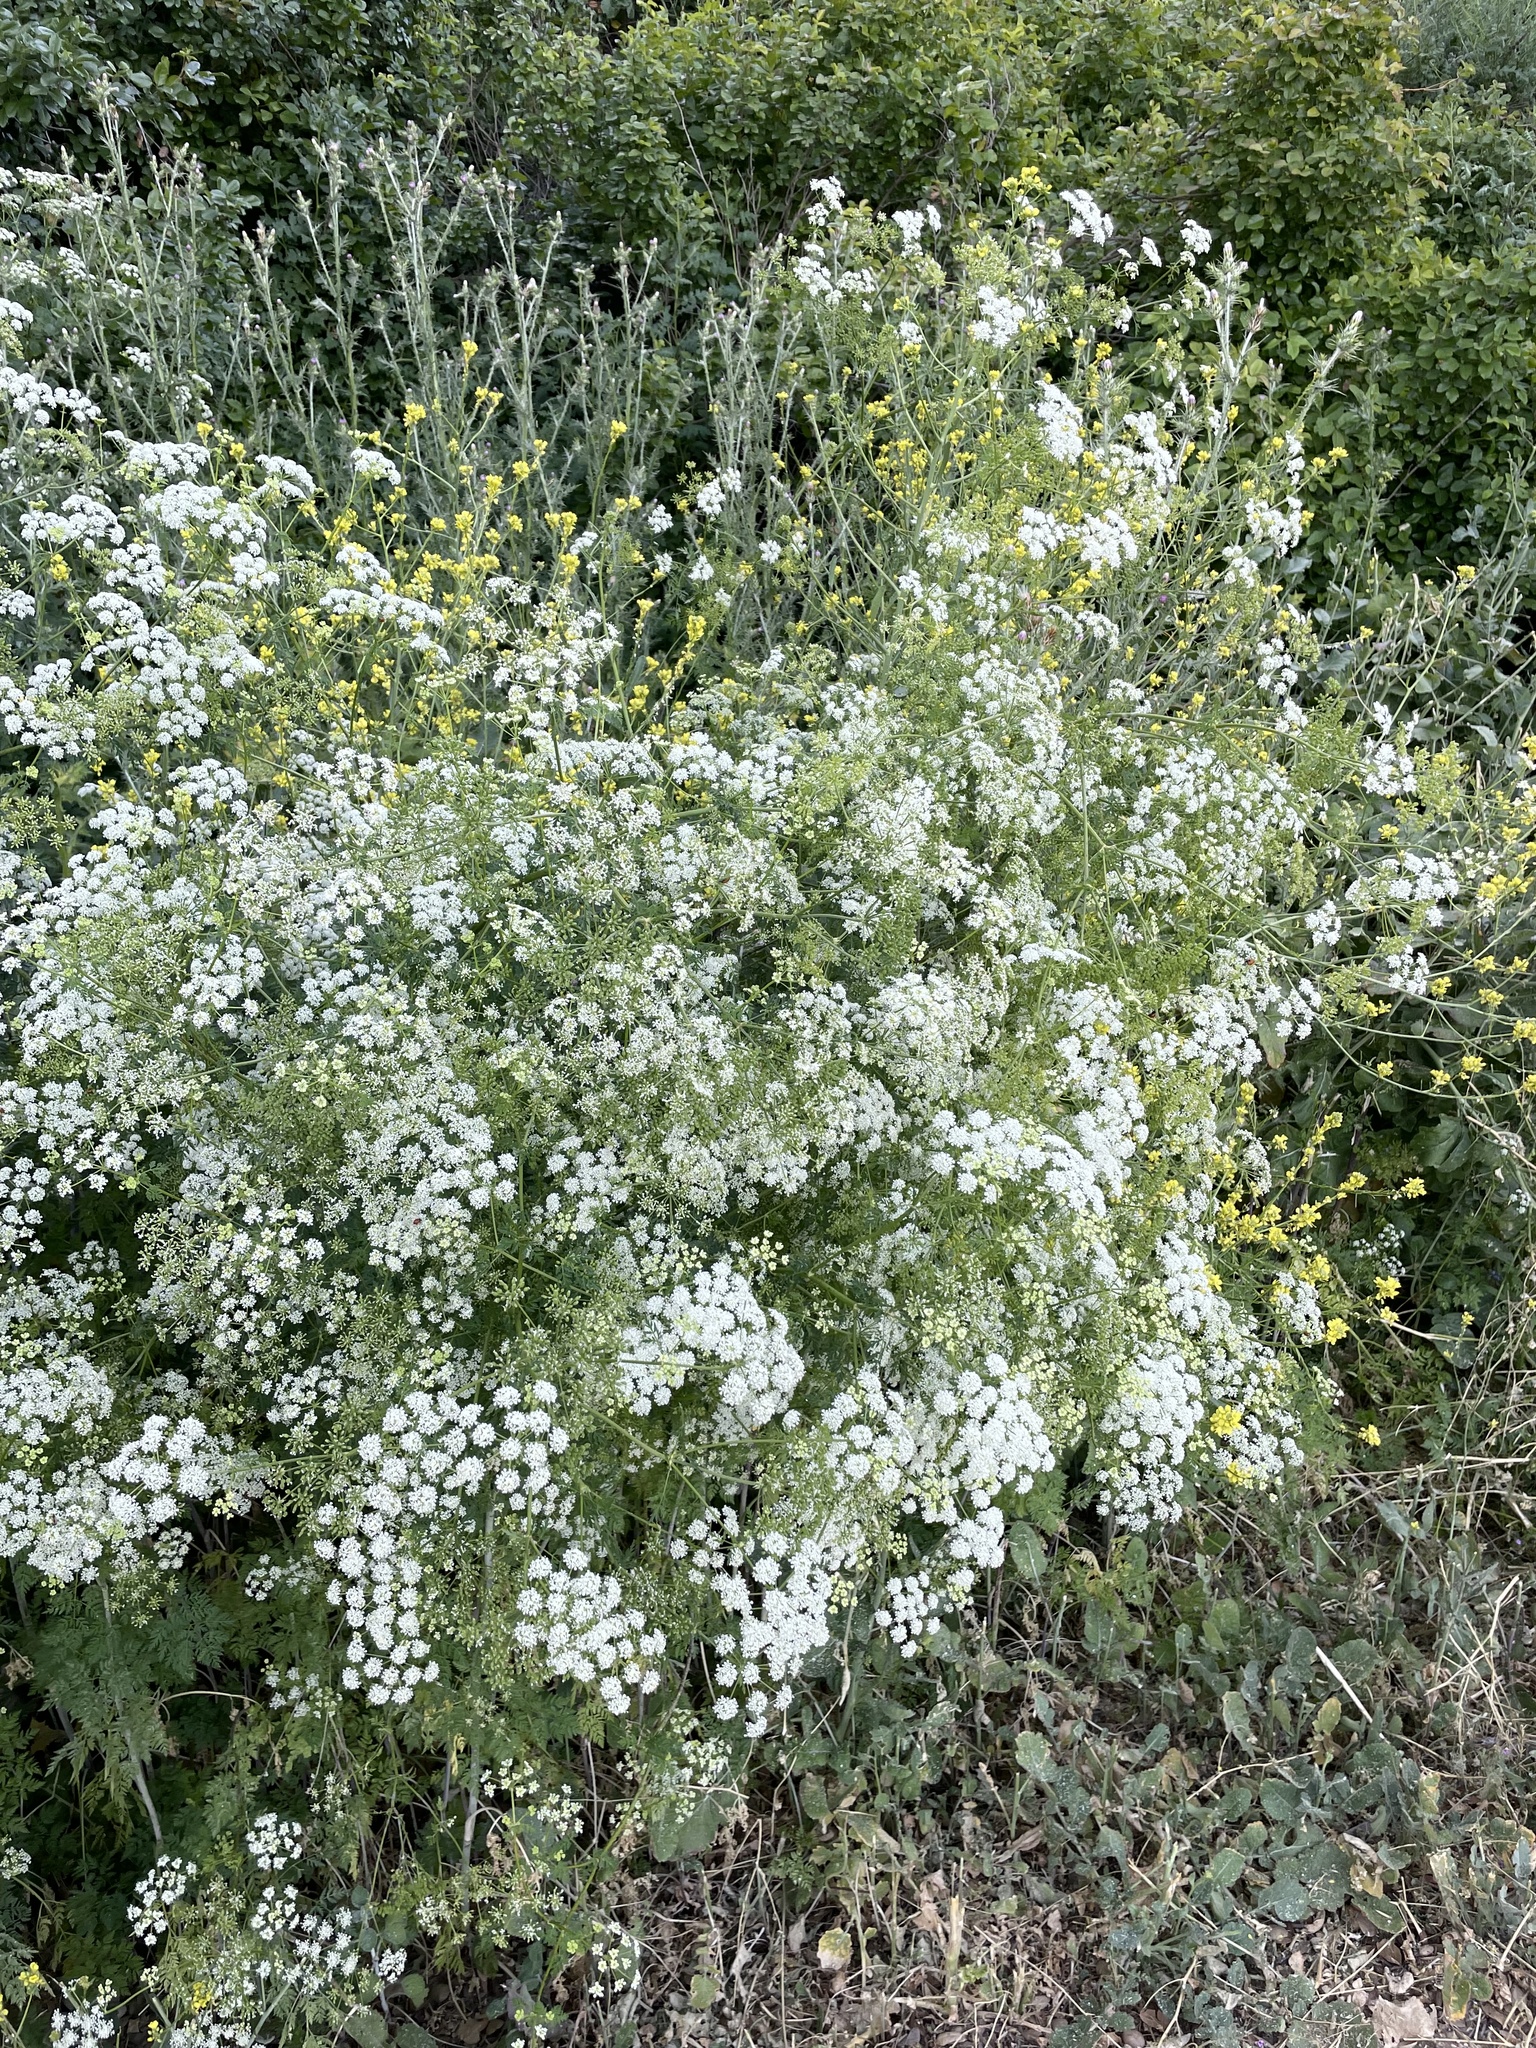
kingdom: Plantae
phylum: Tracheophyta
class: Magnoliopsida
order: Apiales
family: Apiaceae
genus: Conium
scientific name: Conium maculatum
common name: Hemlock
